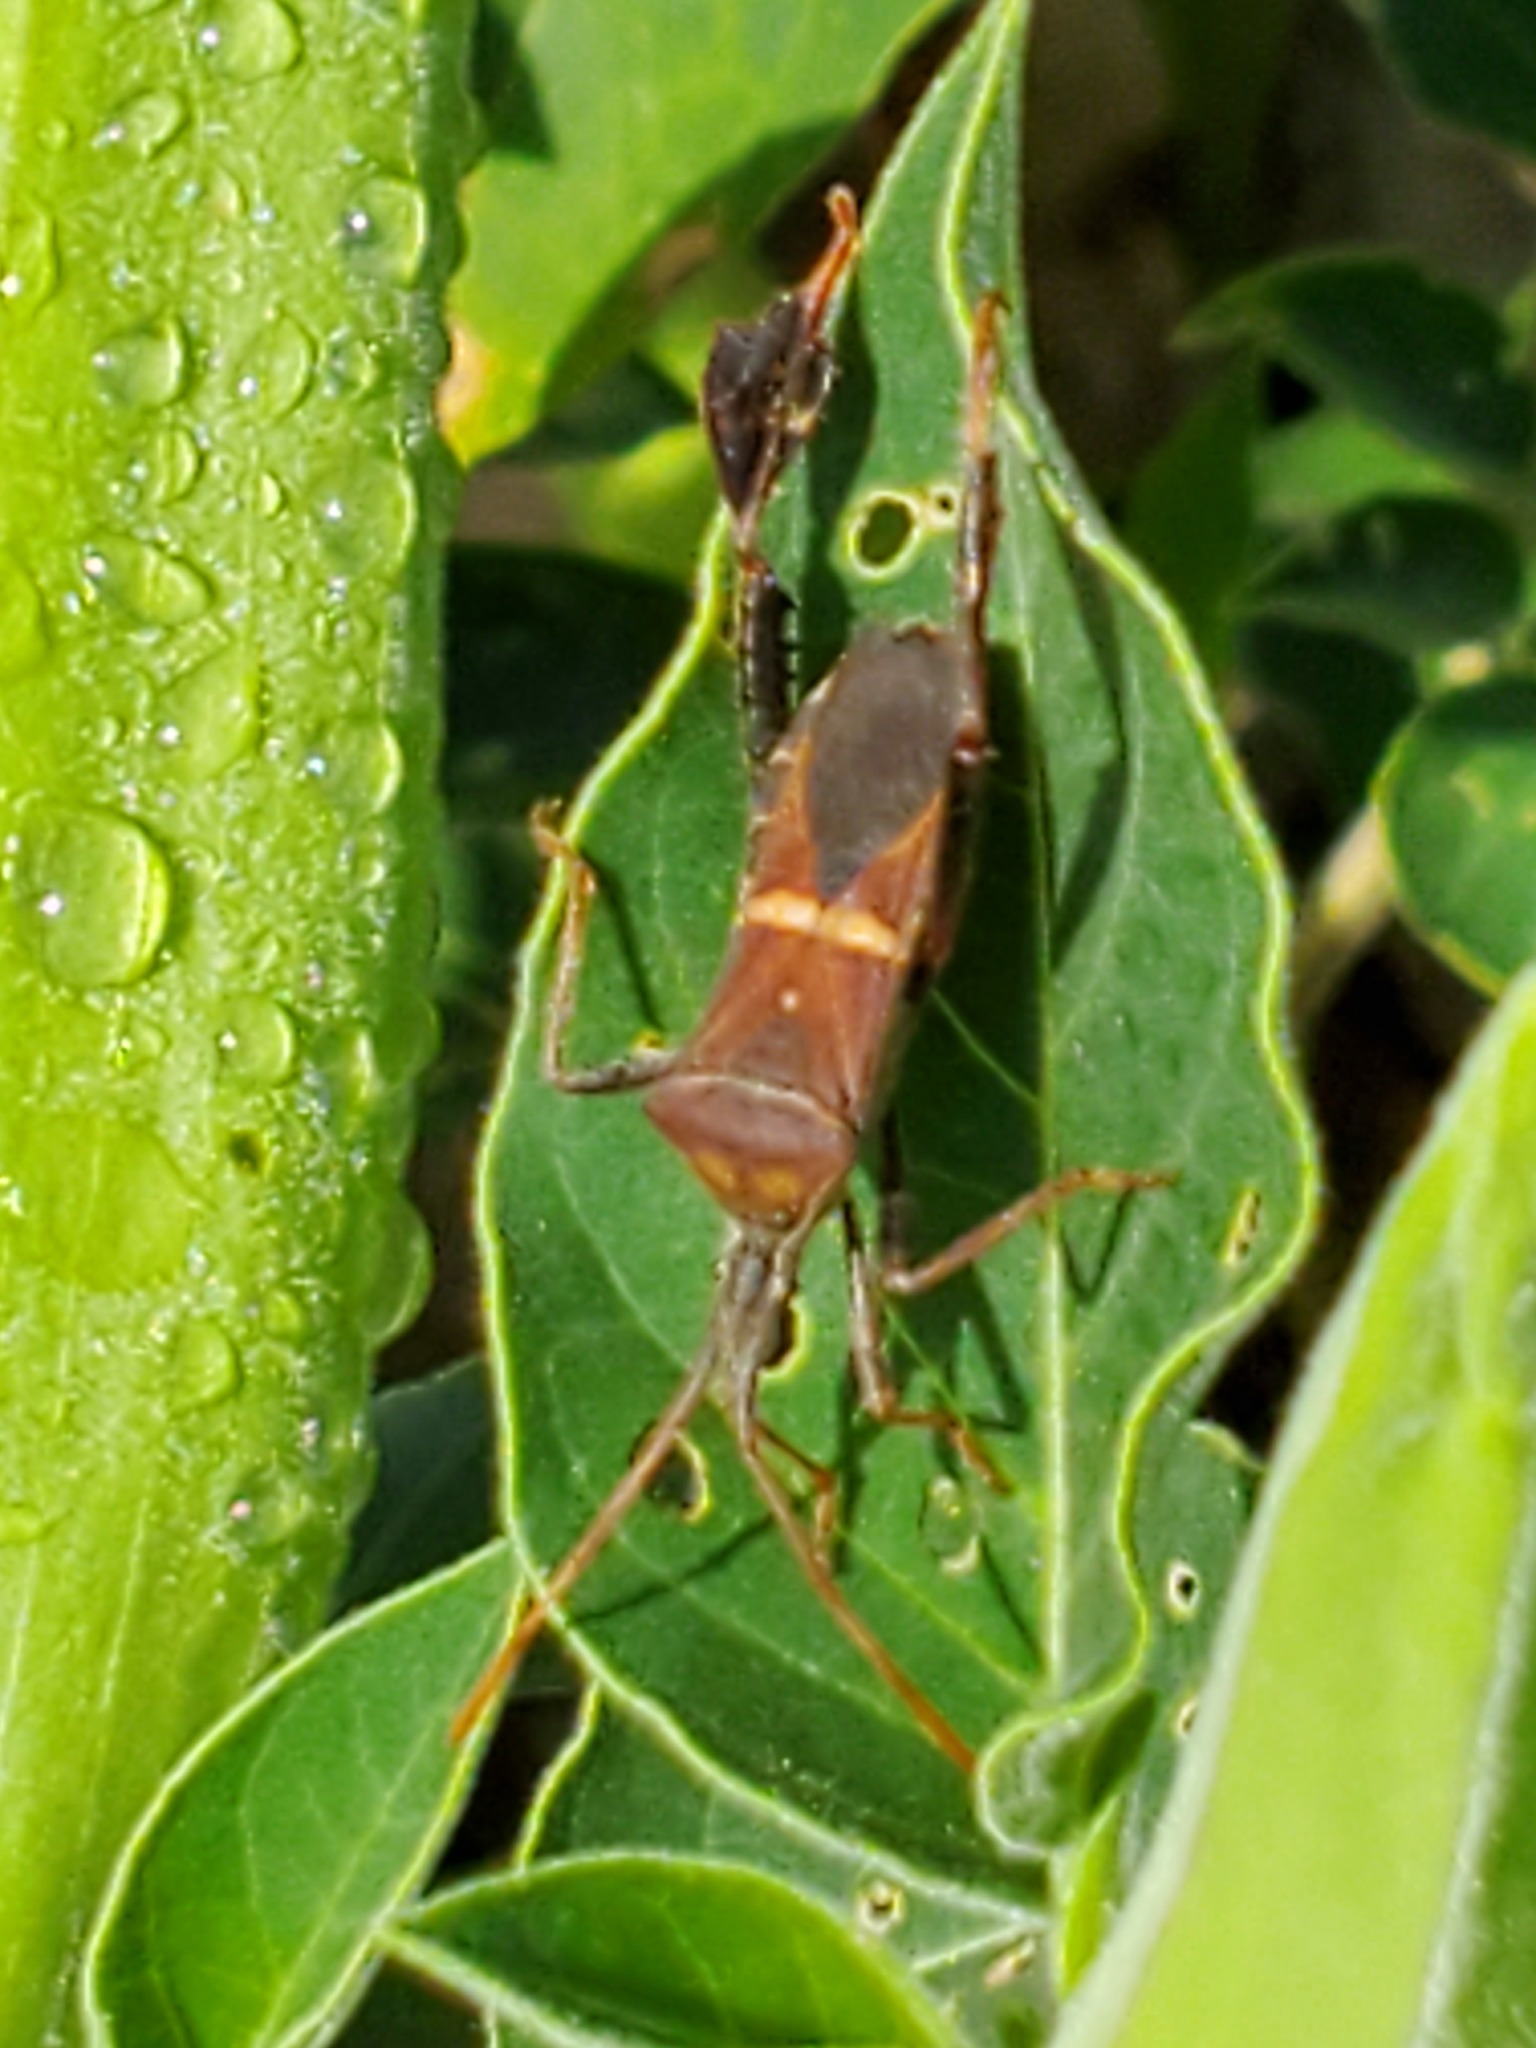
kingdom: Animalia
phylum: Arthropoda
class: Insecta
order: Hemiptera
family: Coreidae
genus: Leptoglossus
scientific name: Leptoglossus phyllopus
